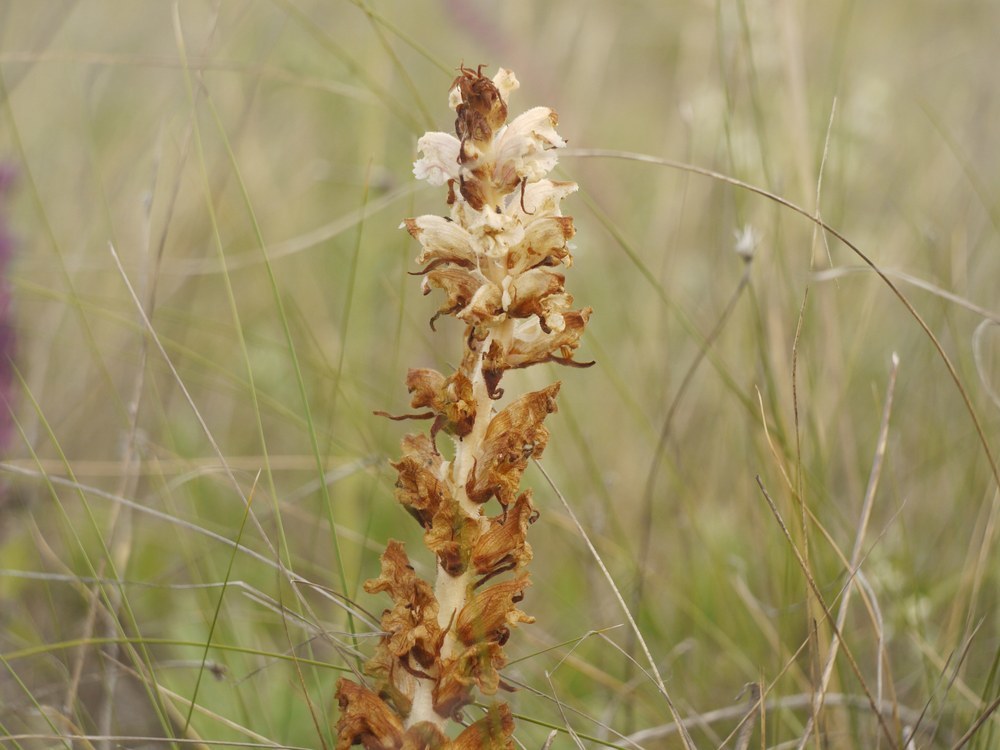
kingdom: Plantae
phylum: Tracheophyta
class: Magnoliopsida
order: Lamiales
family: Orobanchaceae
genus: Orobanche
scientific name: Orobanche alba
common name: Thyme broomrape
